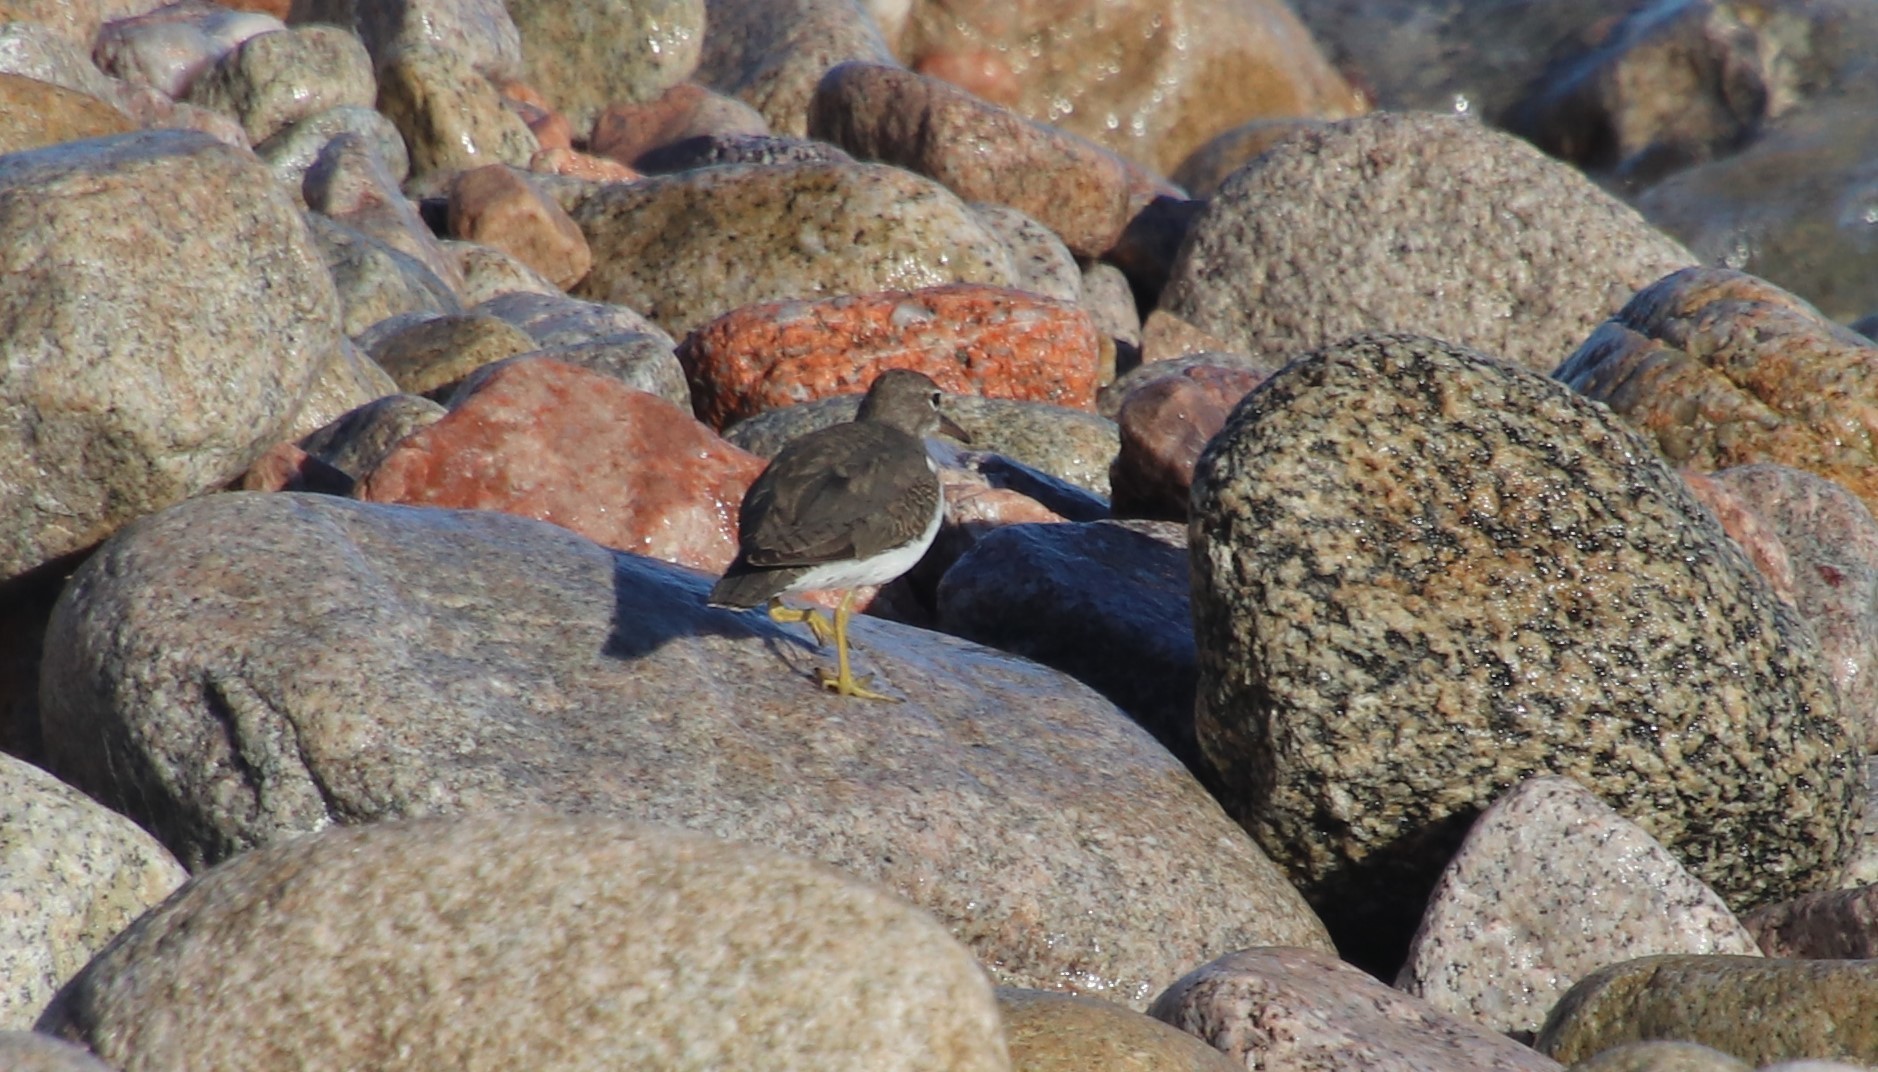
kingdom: Animalia
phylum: Chordata
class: Aves
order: Charadriiformes
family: Scolopacidae
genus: Actitis
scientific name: Actitis macularius
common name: Spotted sandpiper
